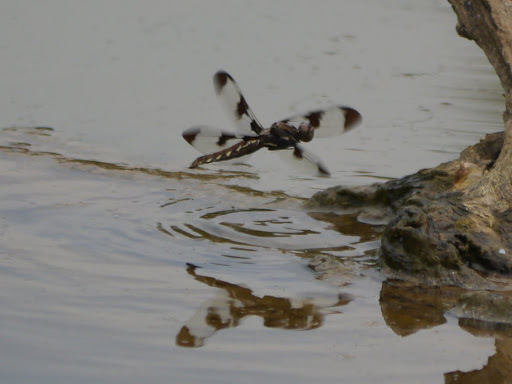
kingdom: Animalia
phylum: Arthropoda
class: Insecta
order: Odonata
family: Libellulidae
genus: Plathemis
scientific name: Plathemis lydia
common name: Common whitetail
